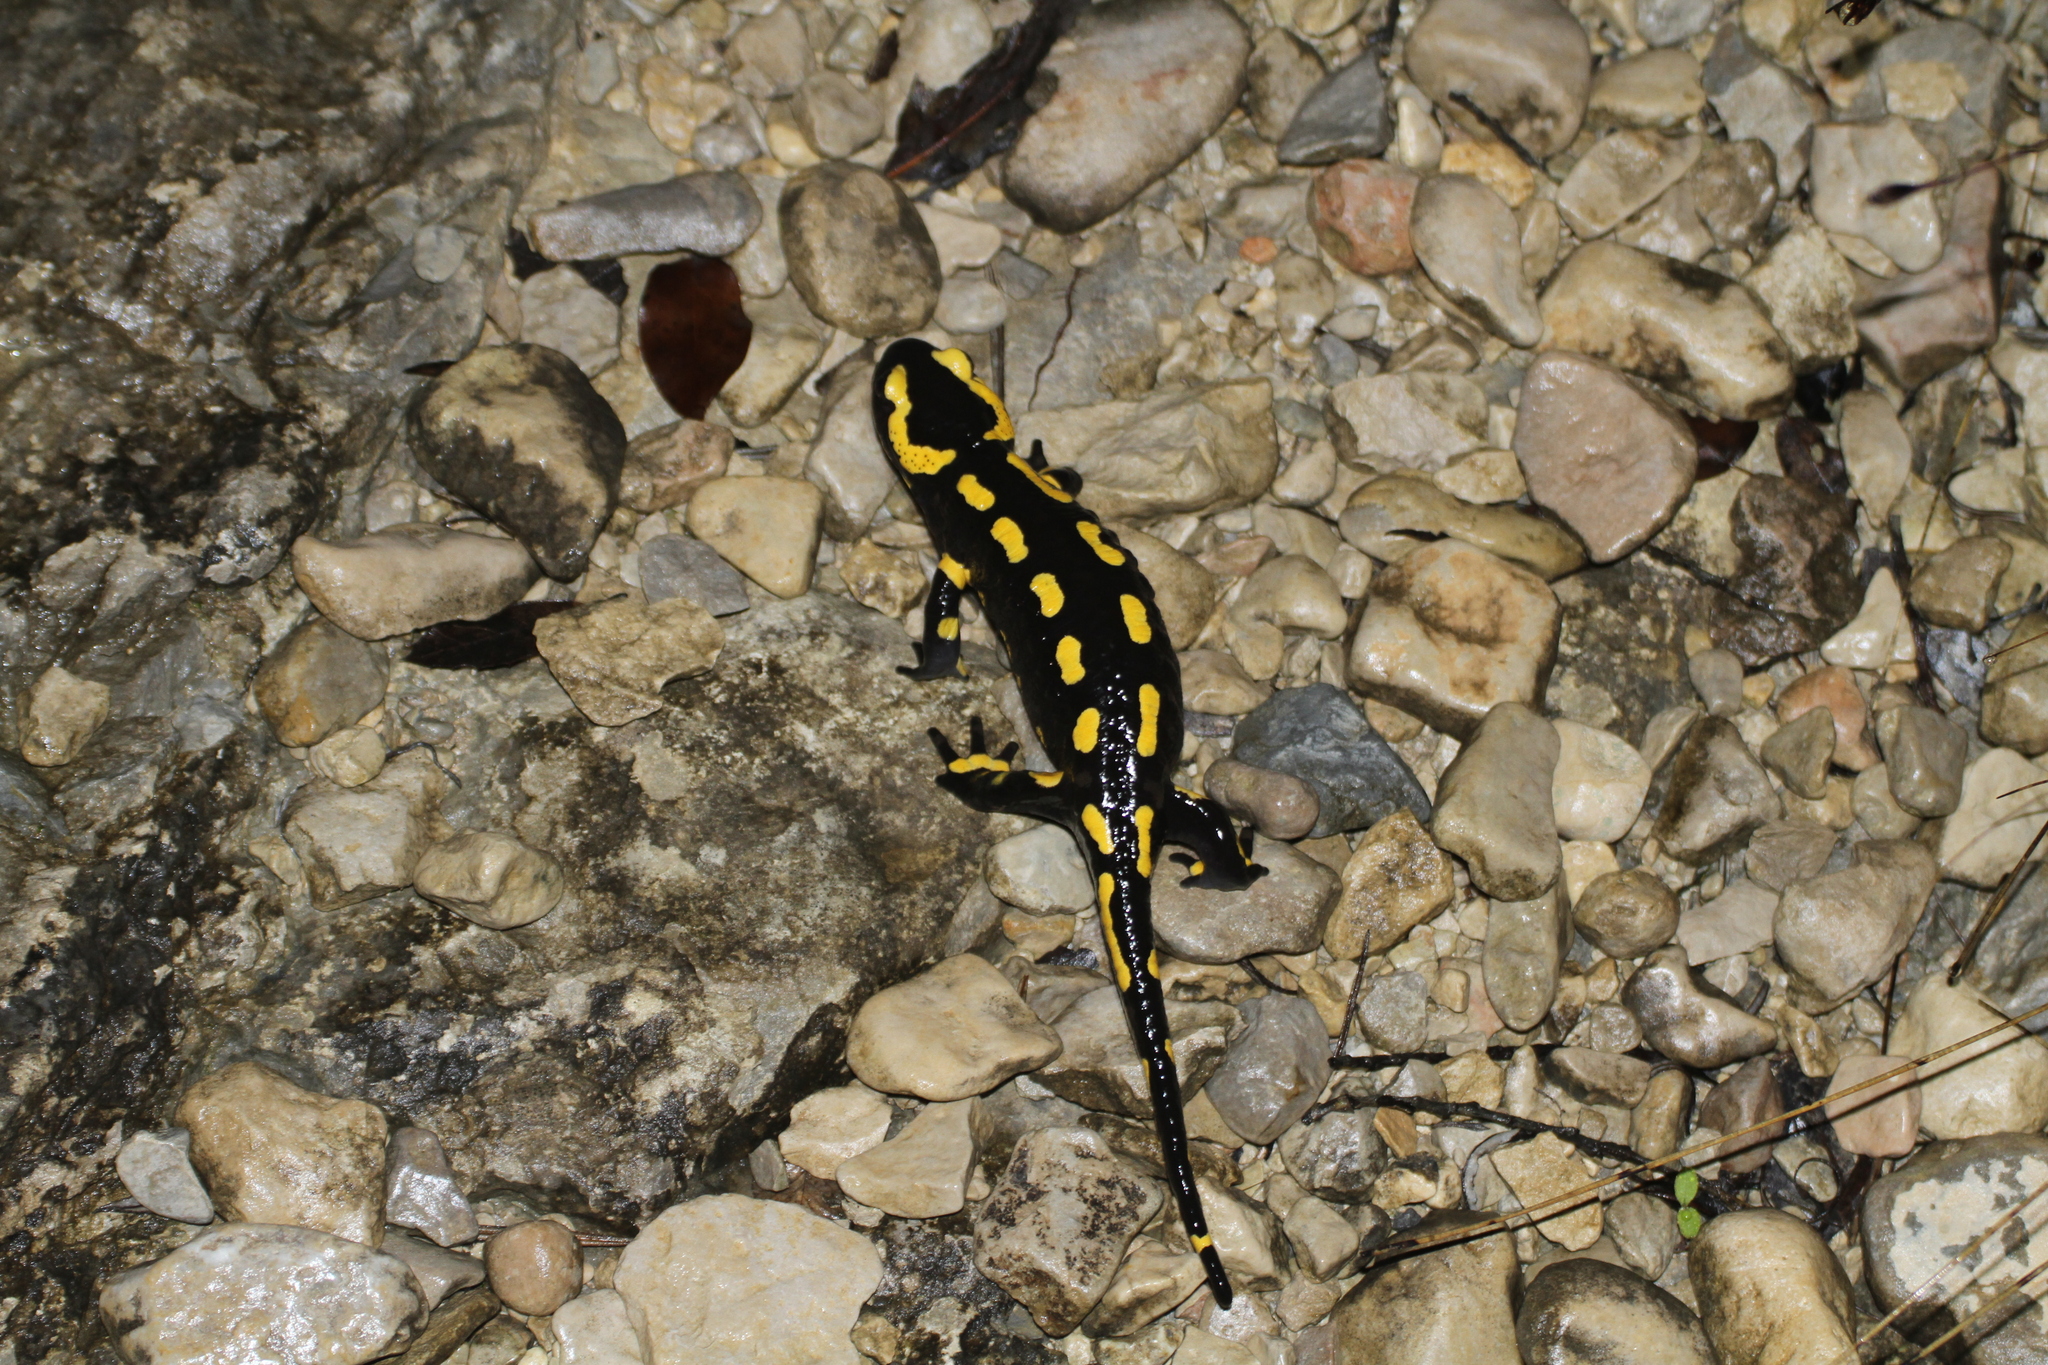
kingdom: Animalia
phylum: Chordata
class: Amphibia
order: Caudata
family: Salamandridae
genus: Salamandra
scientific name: Salamandra salamandra
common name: Fire salamander
